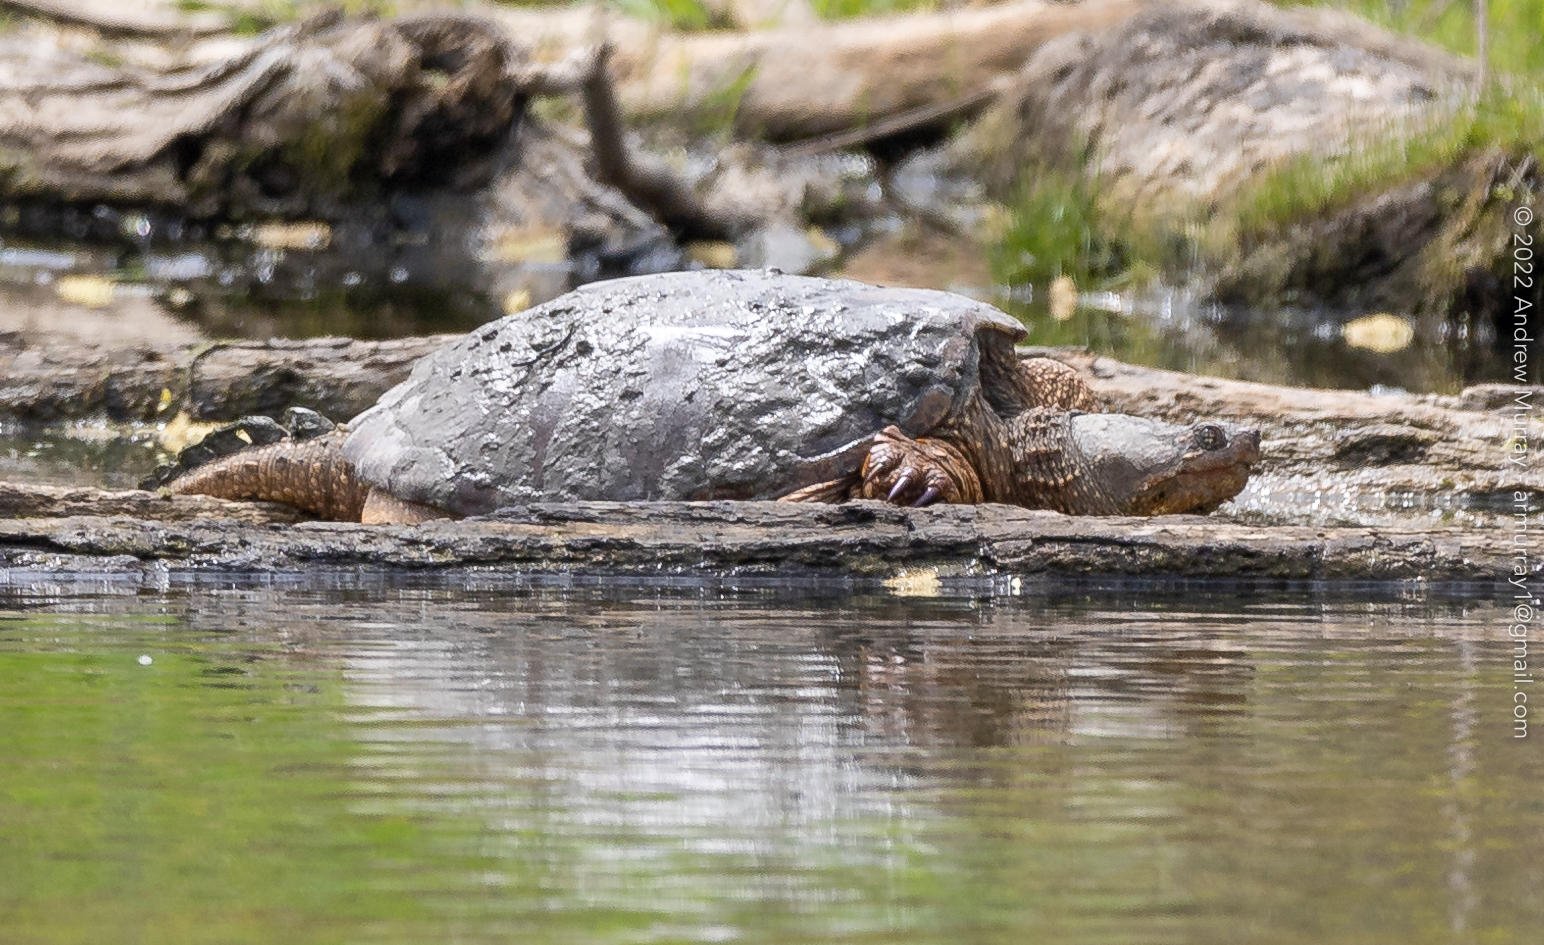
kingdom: Animalia
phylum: Chordata
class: Testudines
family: Chelydridae
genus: Chelydra
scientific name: Chelydra serpentina
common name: Common snapping turtle
